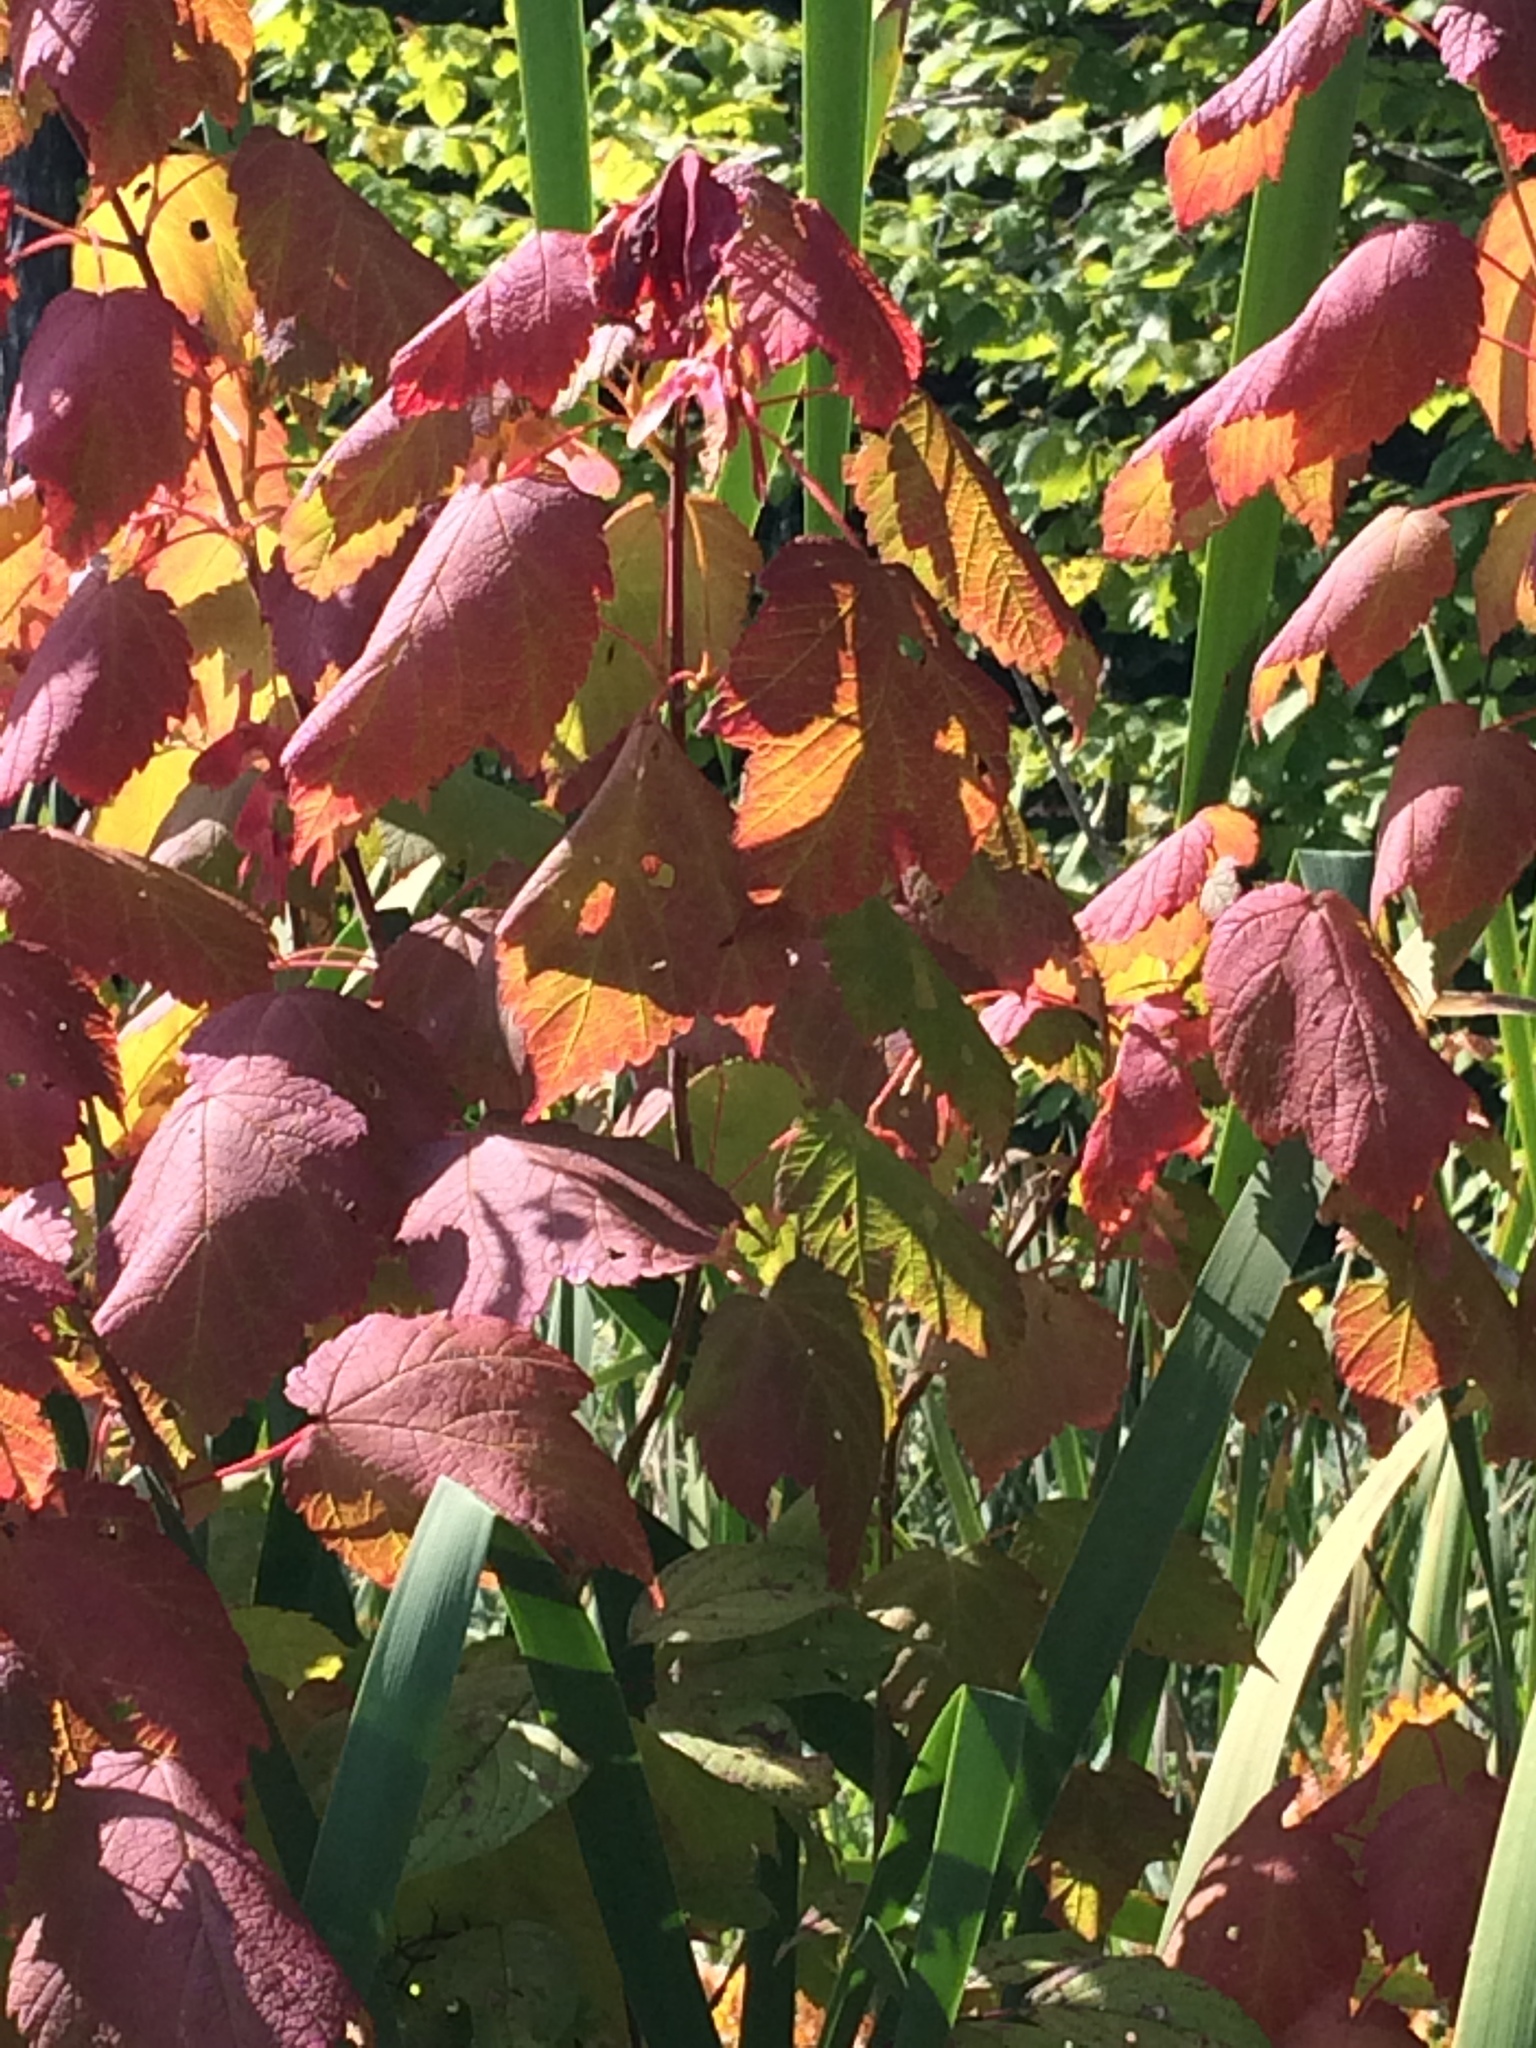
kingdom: Plantae
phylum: Tracheophyta
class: Magnoliopsida
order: Sapindales
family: Sapindaceae
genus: Acer
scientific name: Acer spicatum
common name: Mountain maple
